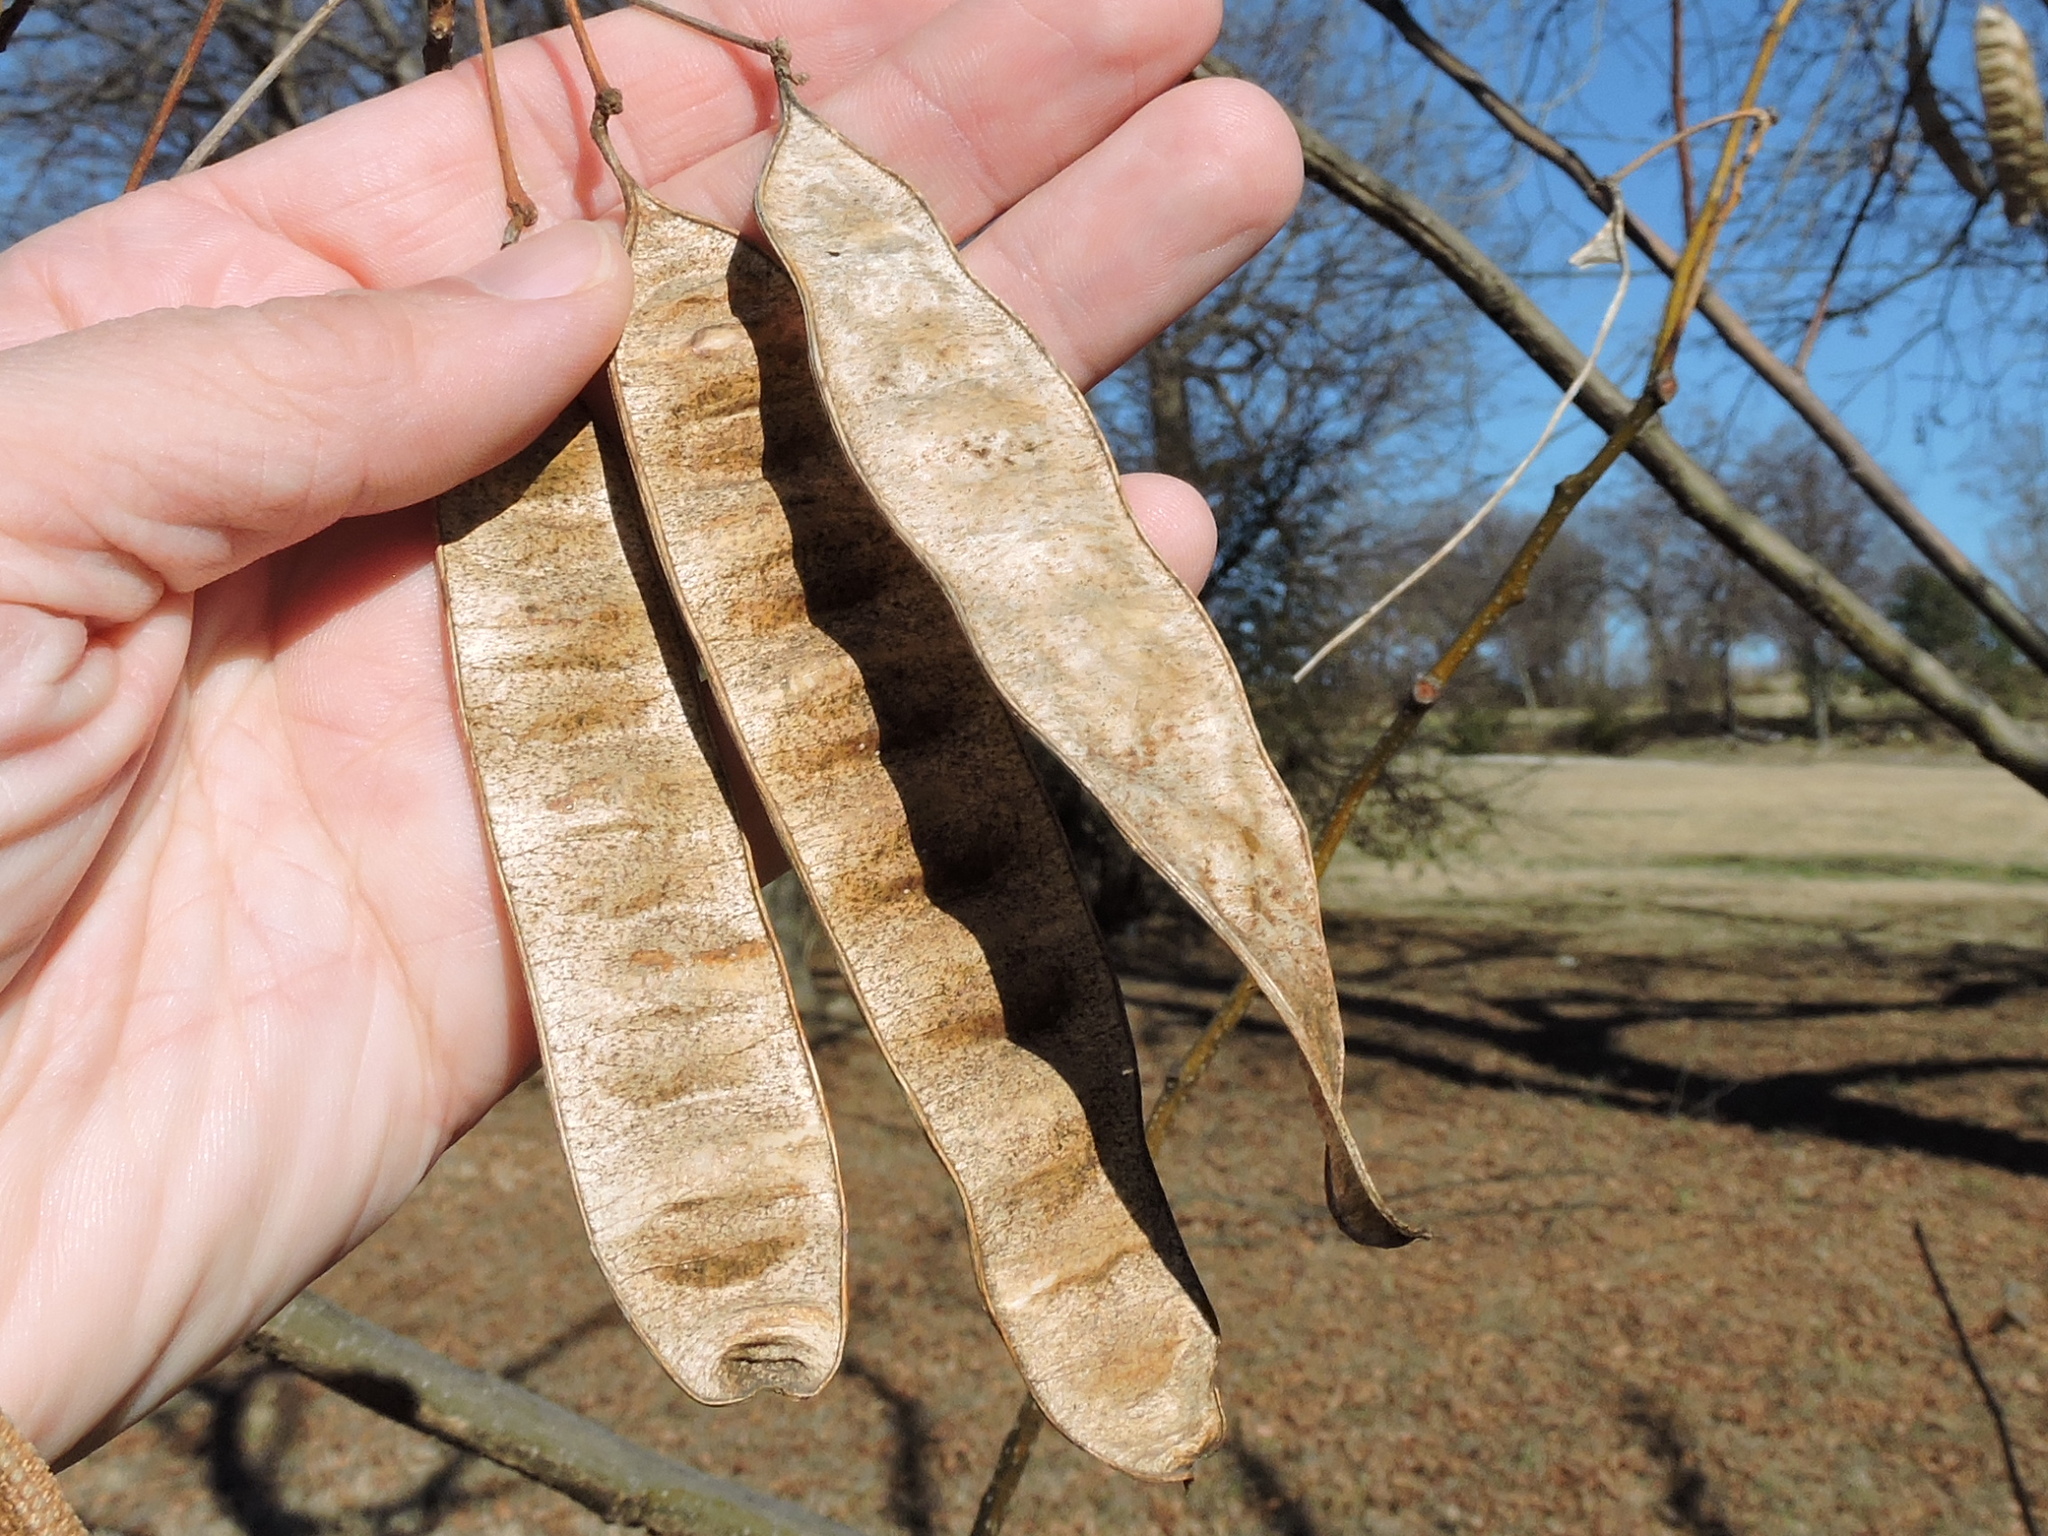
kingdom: Plantae
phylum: Tracheophyta
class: Magnoliopsida
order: Fabales
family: Fabaceae
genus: Albizia
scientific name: Albizia julibrissin
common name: Silktree
